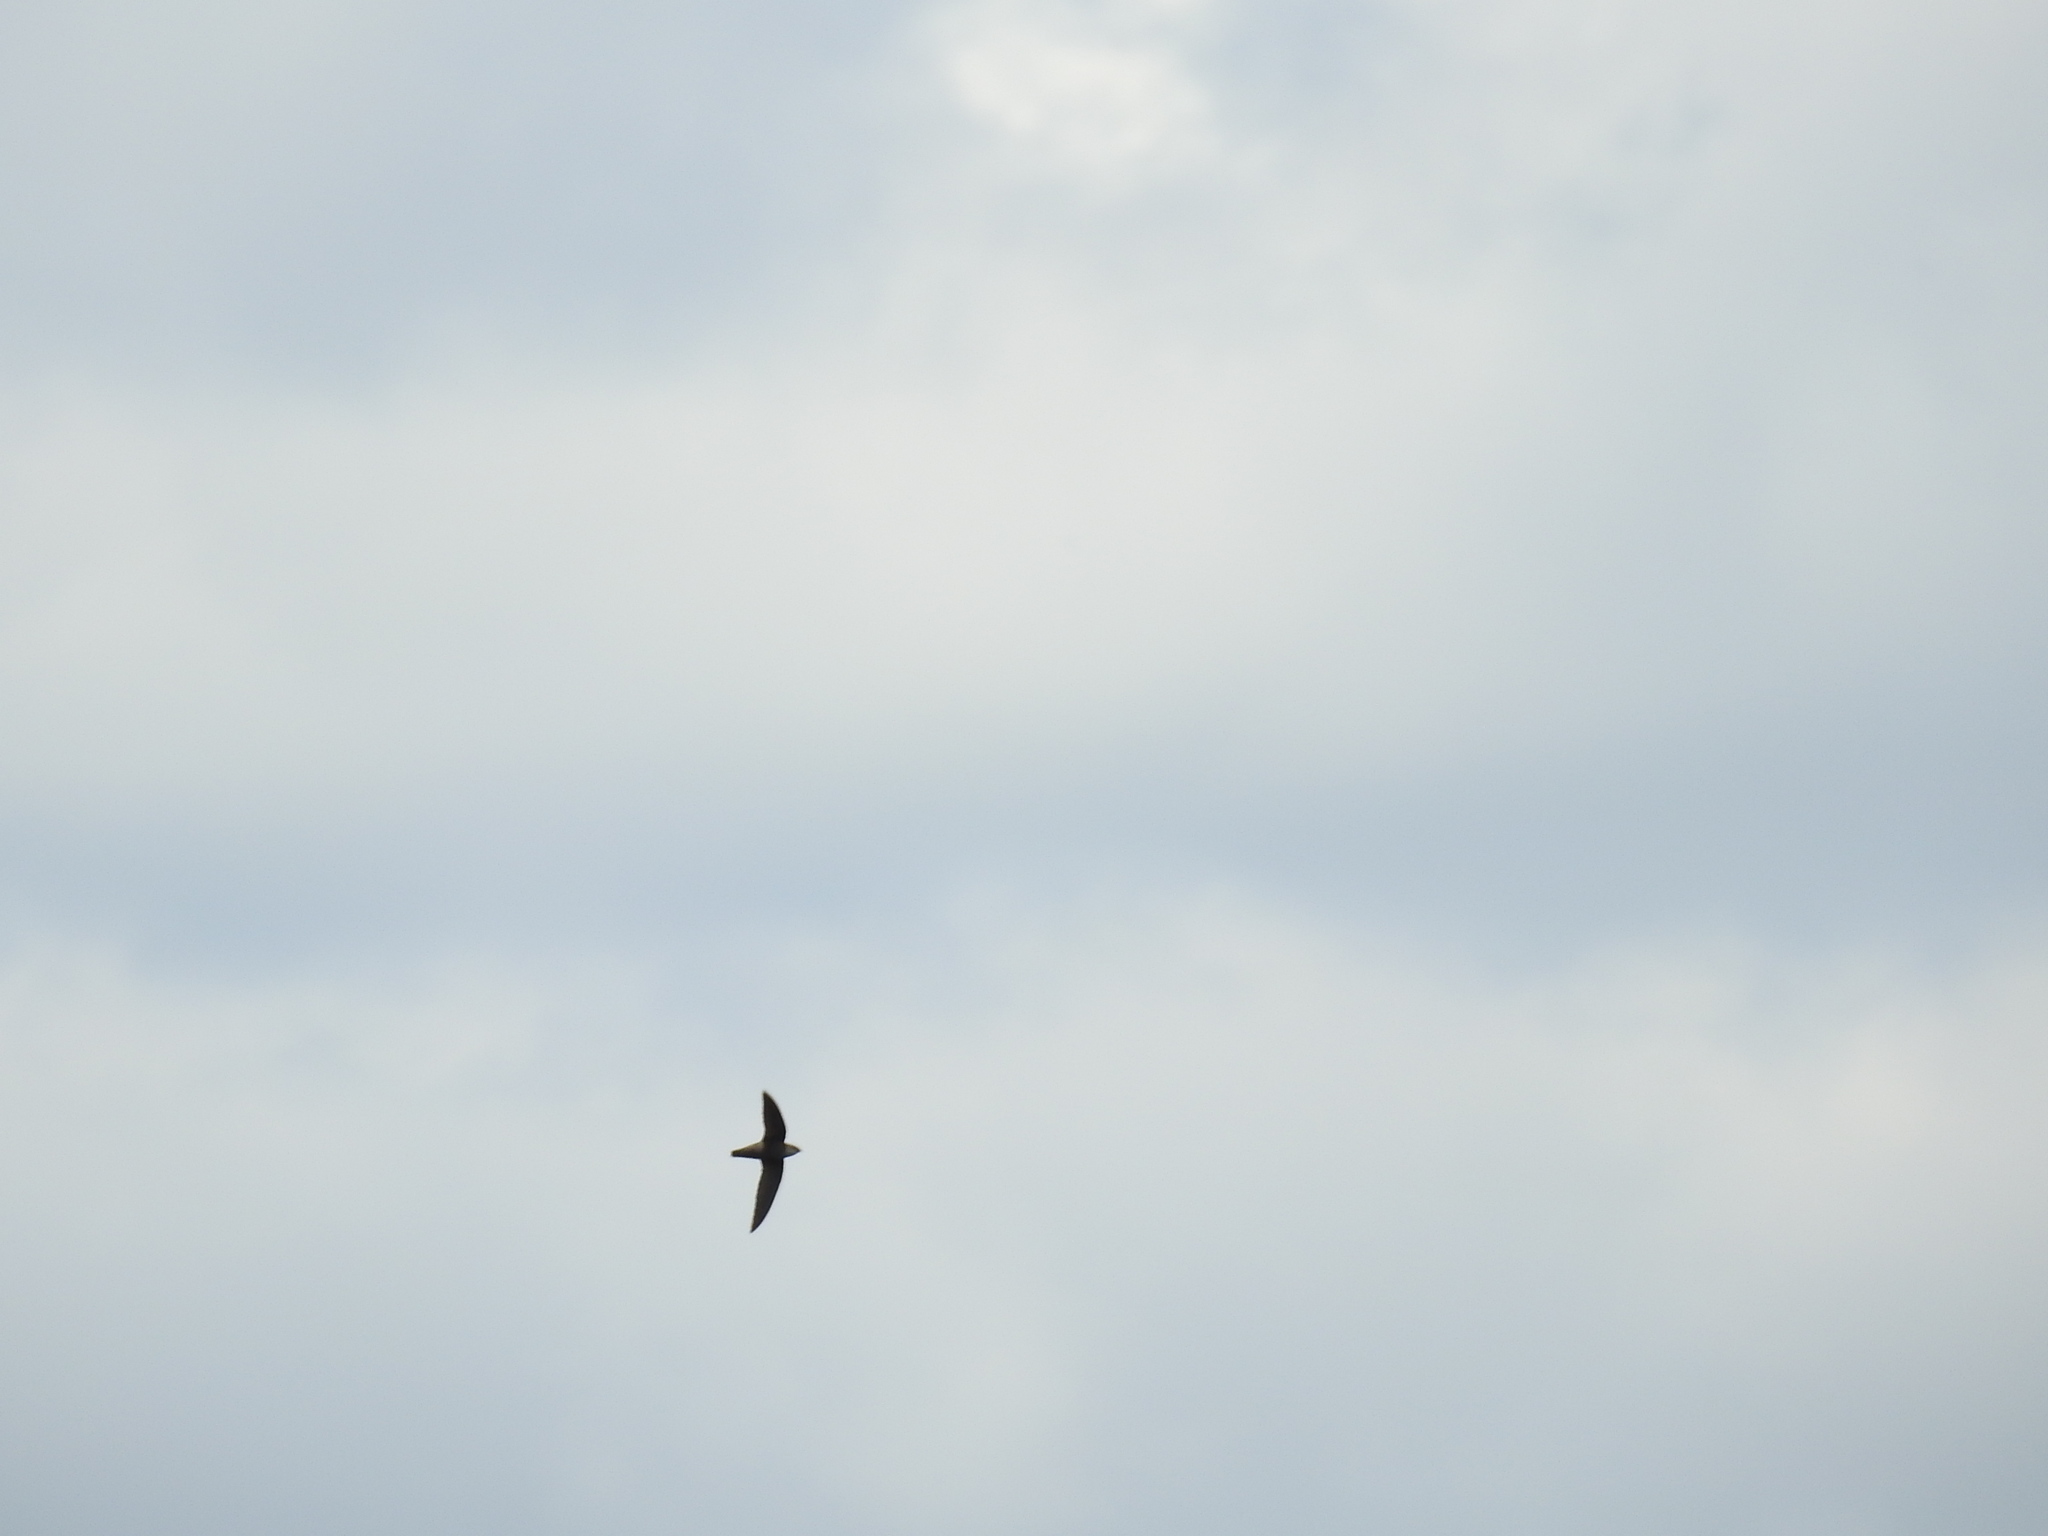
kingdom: Animalia
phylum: Chordata
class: Aves
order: Apodiformes
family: Apodidae
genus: Chaetura
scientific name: Chaetura pelagica
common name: Chimney swift
